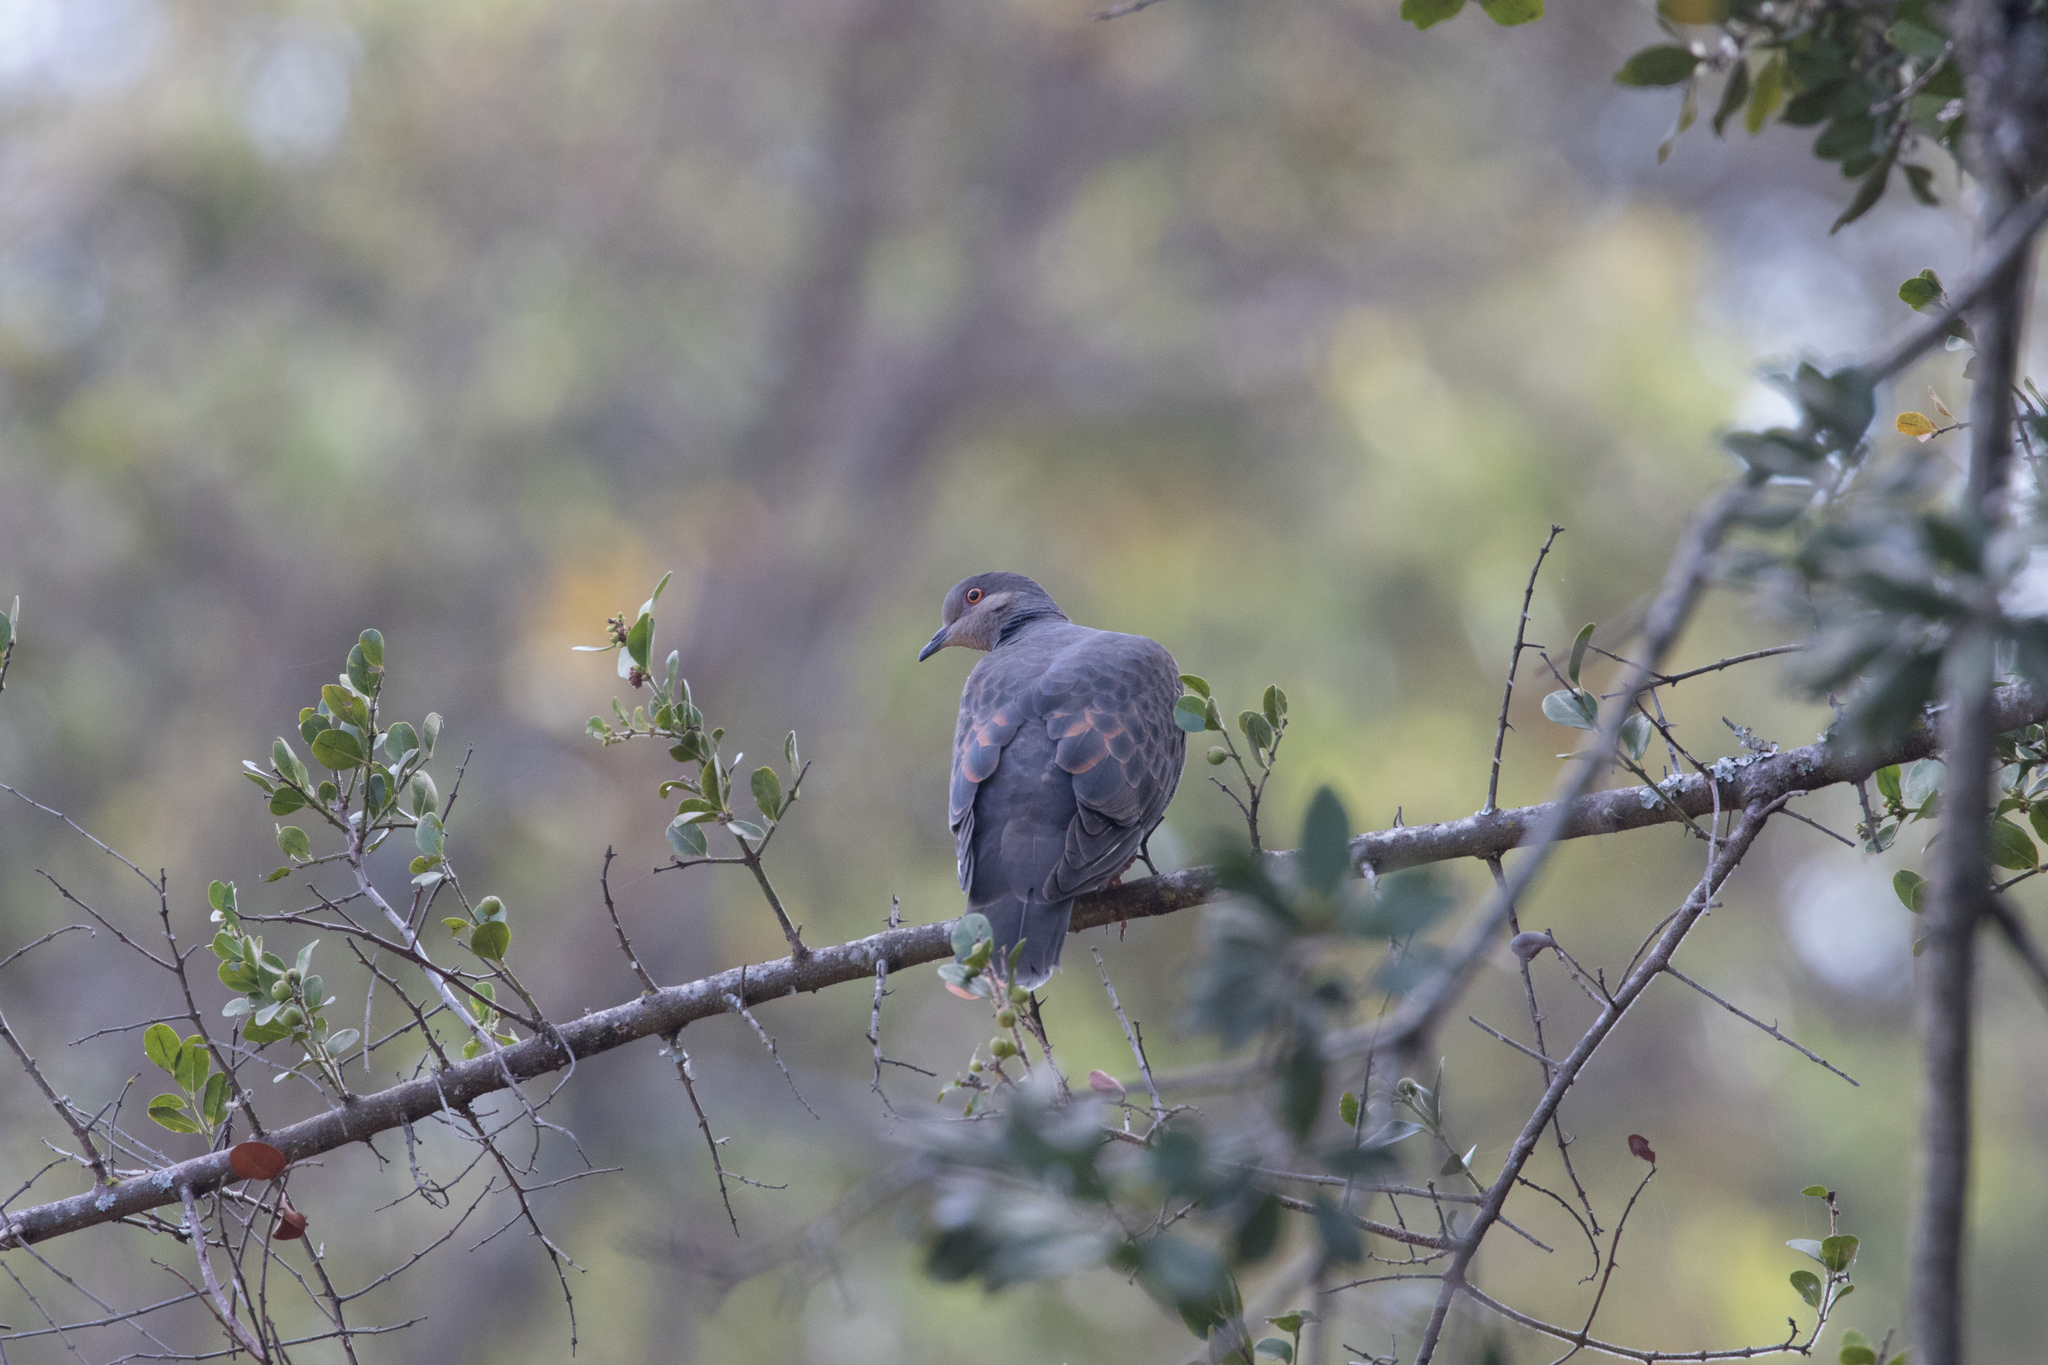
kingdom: Animalia
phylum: Chordata
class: Aves
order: Columbiformes
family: Columbidae
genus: Streptopelia
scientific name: Streptopelia lugens
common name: Dusky turtle dove
